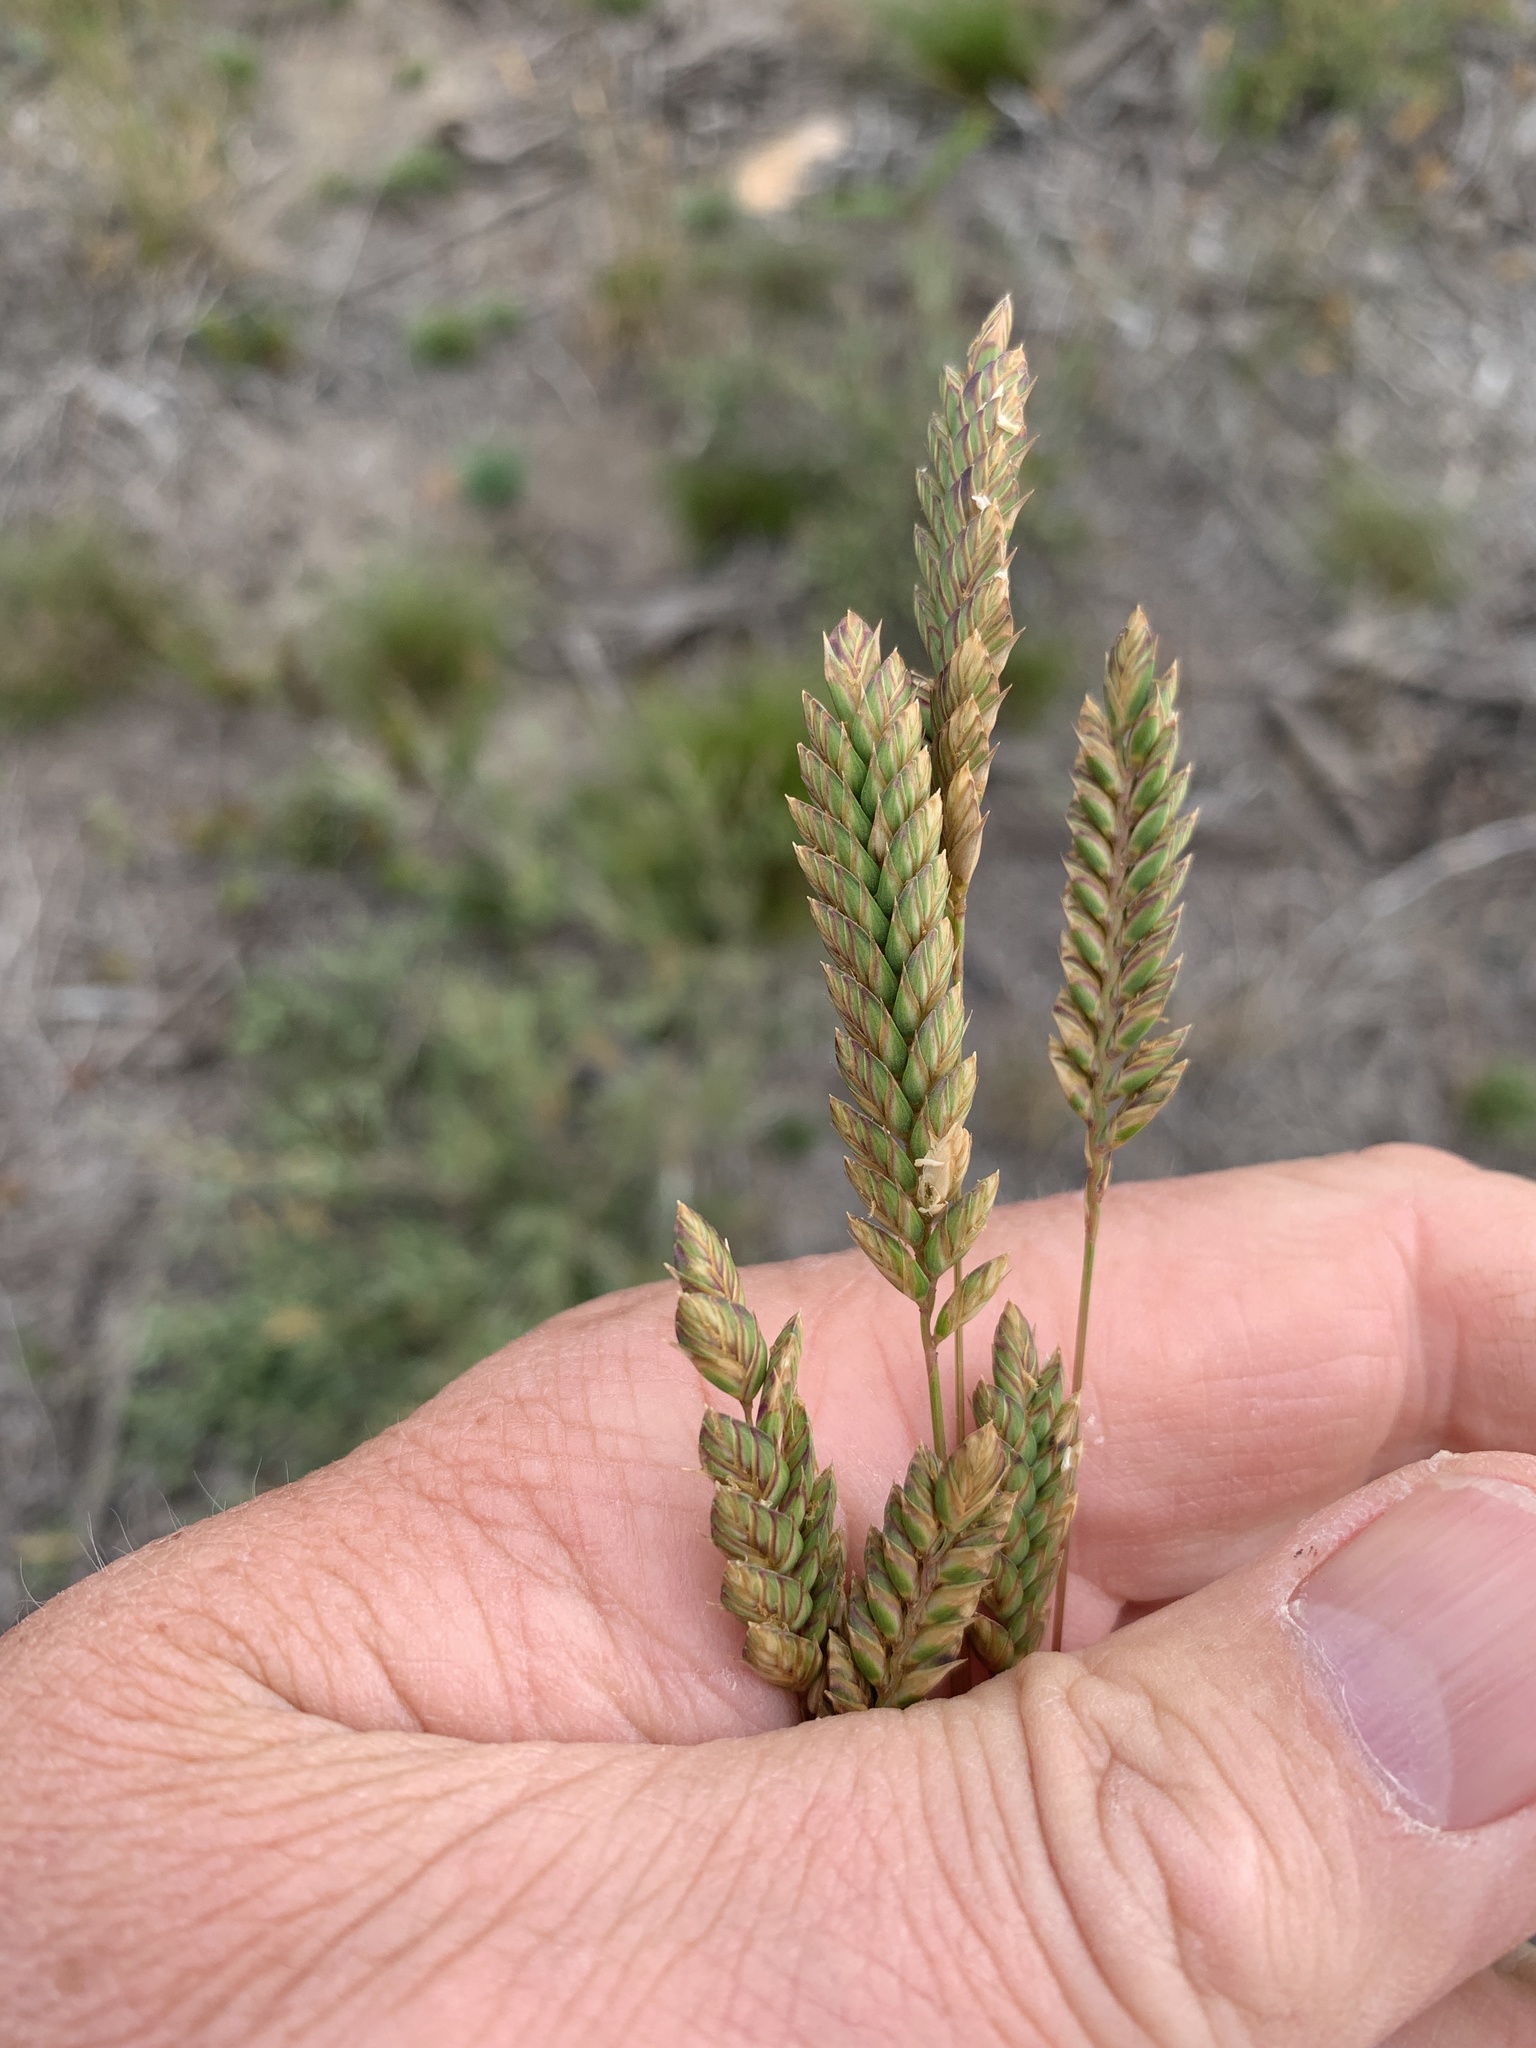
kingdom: Plantae
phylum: Tracheophyta
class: Liliopsida
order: Poales
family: Poaceae
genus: Tribolium
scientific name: Tribolium uniolae
